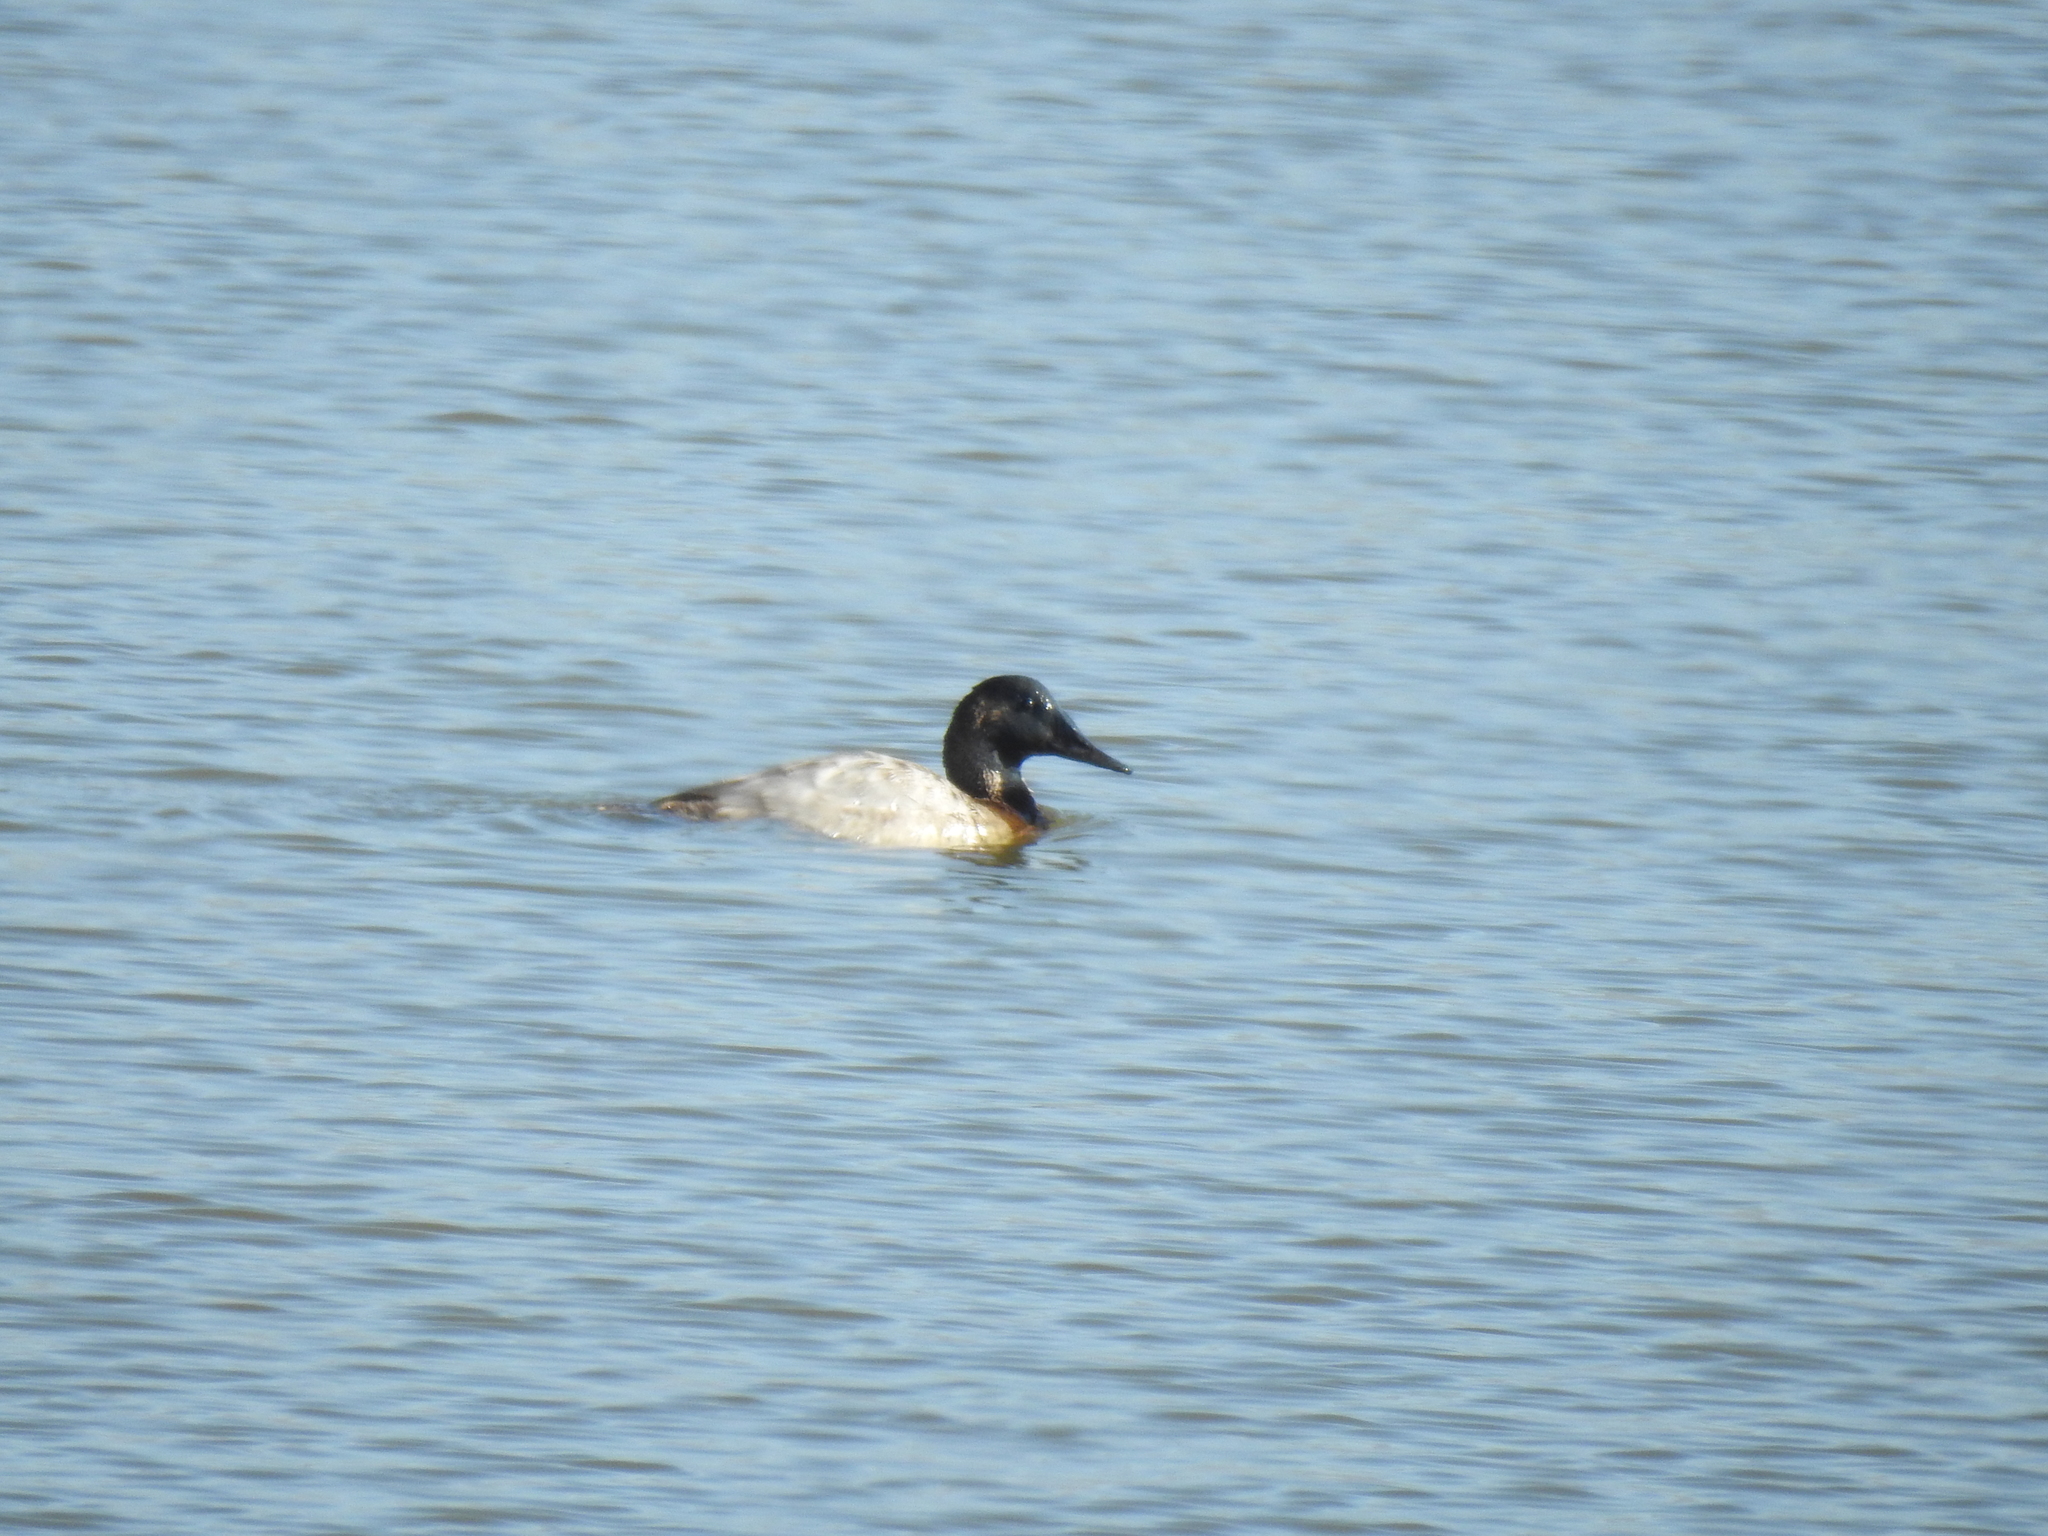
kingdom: Animalia
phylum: Chordata
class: Aves
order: Anseriformes
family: Anatidae
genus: Aythya
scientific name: Aythya valisineria
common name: Canvasback
